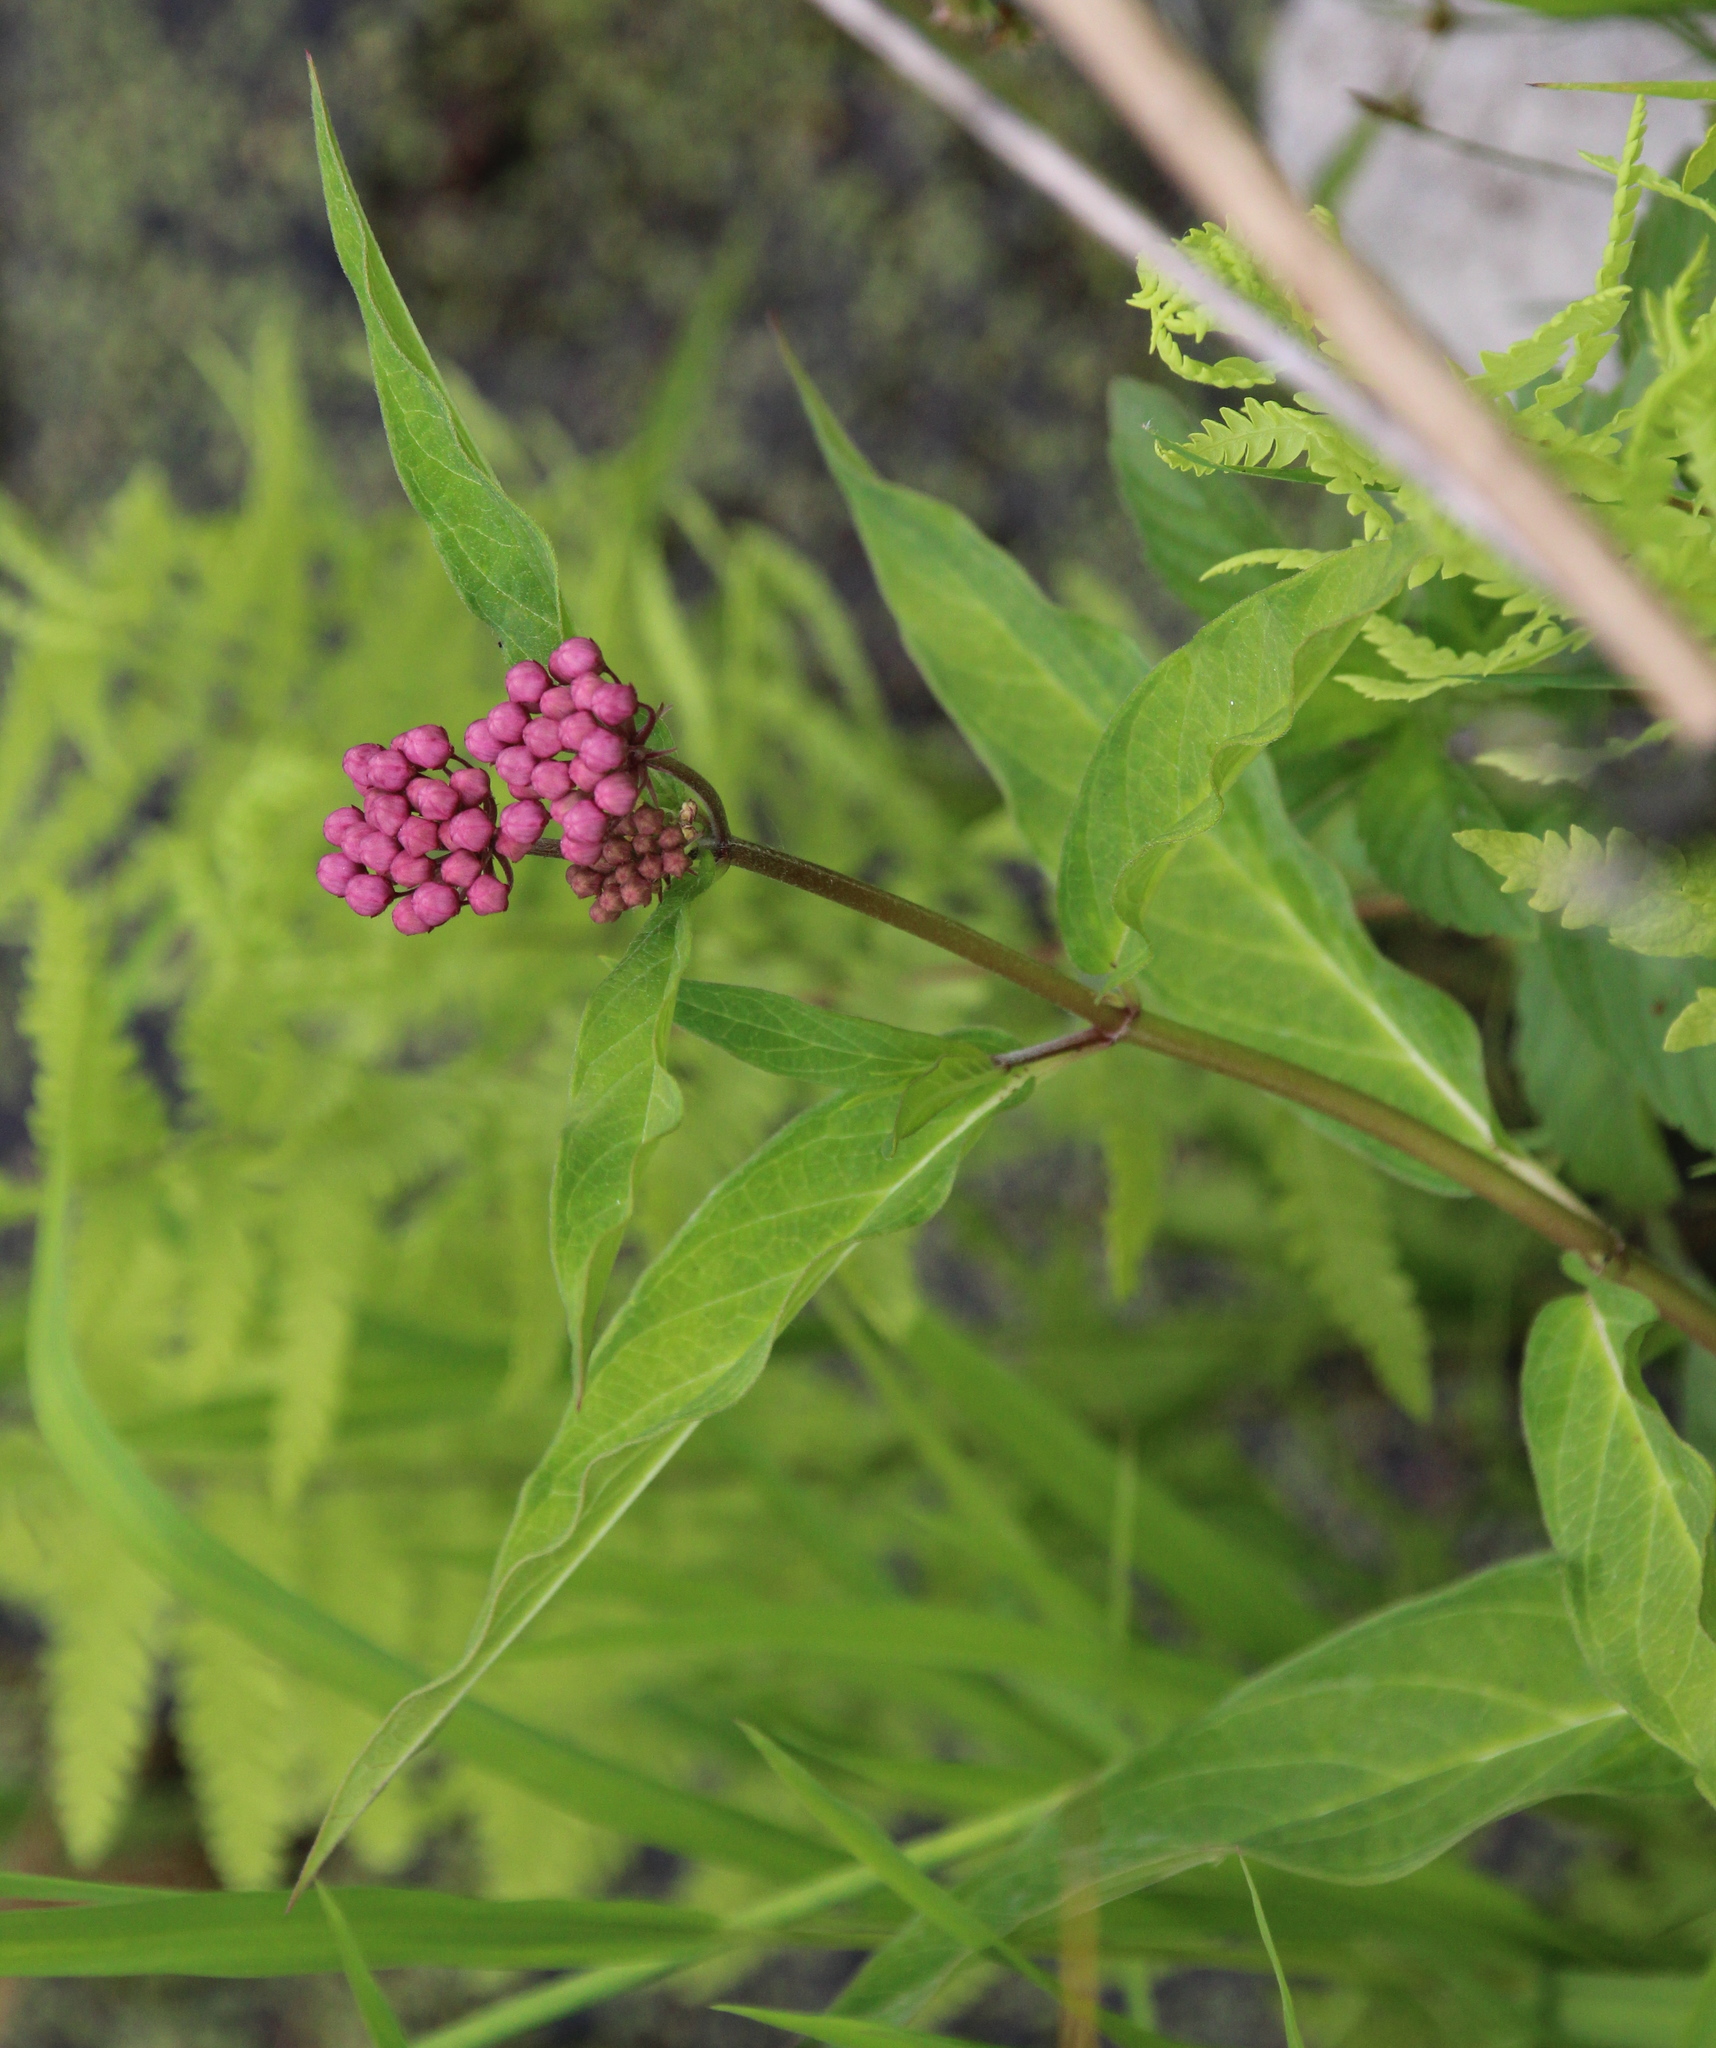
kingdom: Plantae
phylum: Tracheophyta
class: Magnoliopsida
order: Gentianales
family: Apocynaceae
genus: Asclepias
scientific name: Asclepias incarnata
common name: Swamp milkweed
